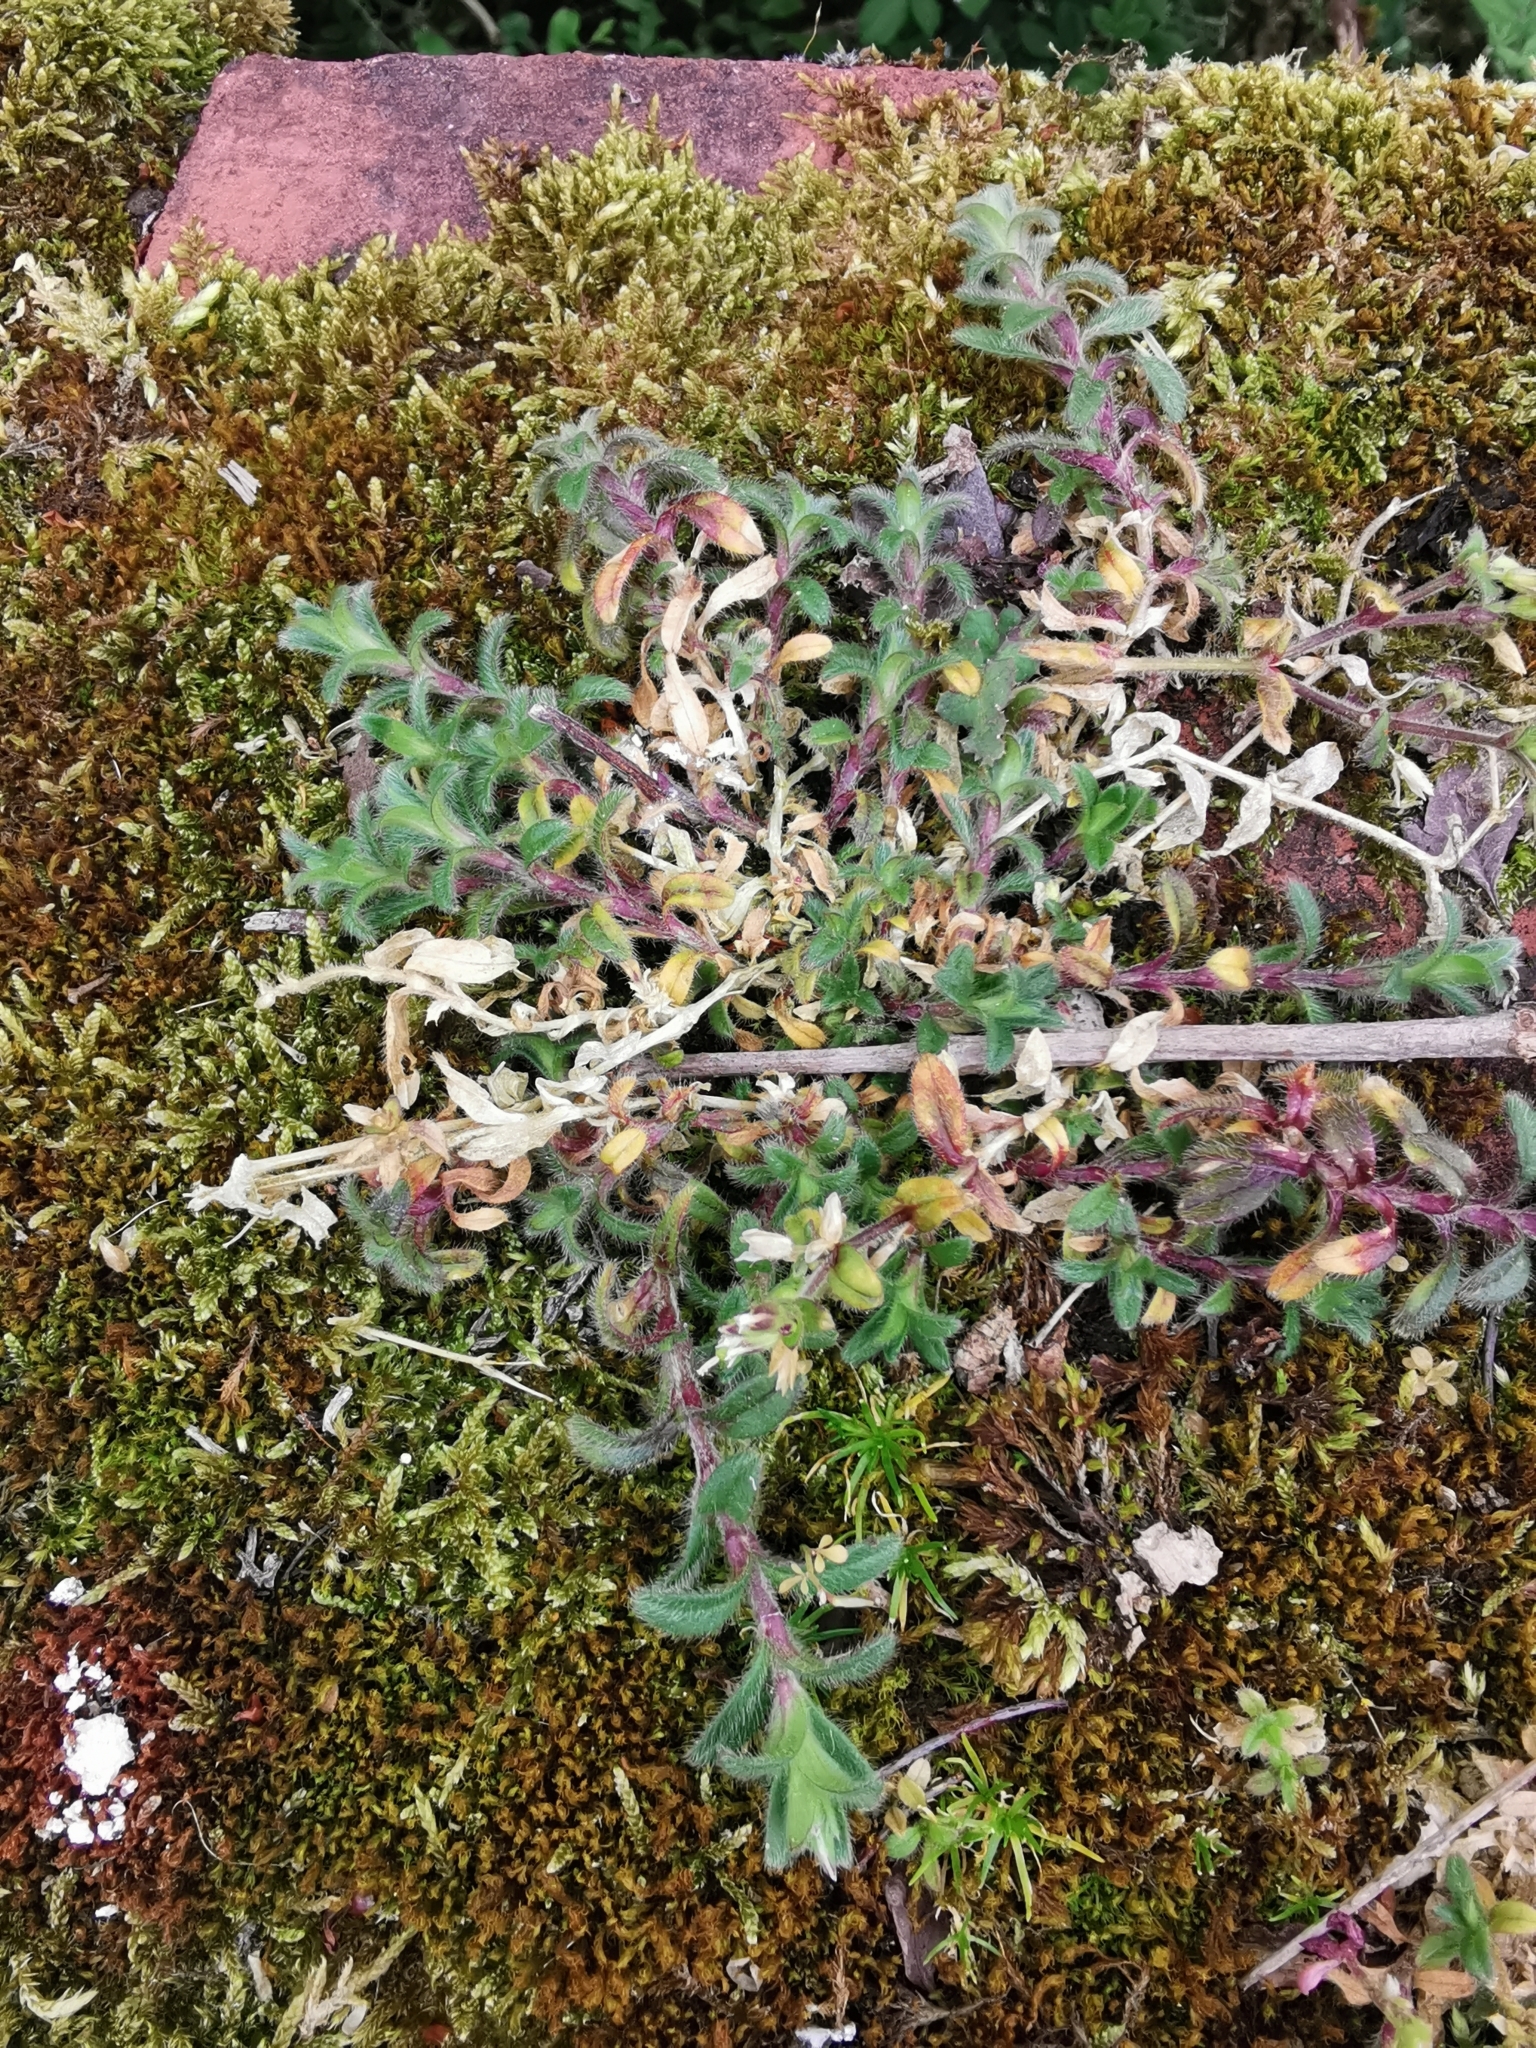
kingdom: Plantae
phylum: Tracheophyta
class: Magnoliopsida
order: Caryophyllales
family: Caryophyllaceae
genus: Cerastium
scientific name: Cerastium fontanum
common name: Common mouse-ear
